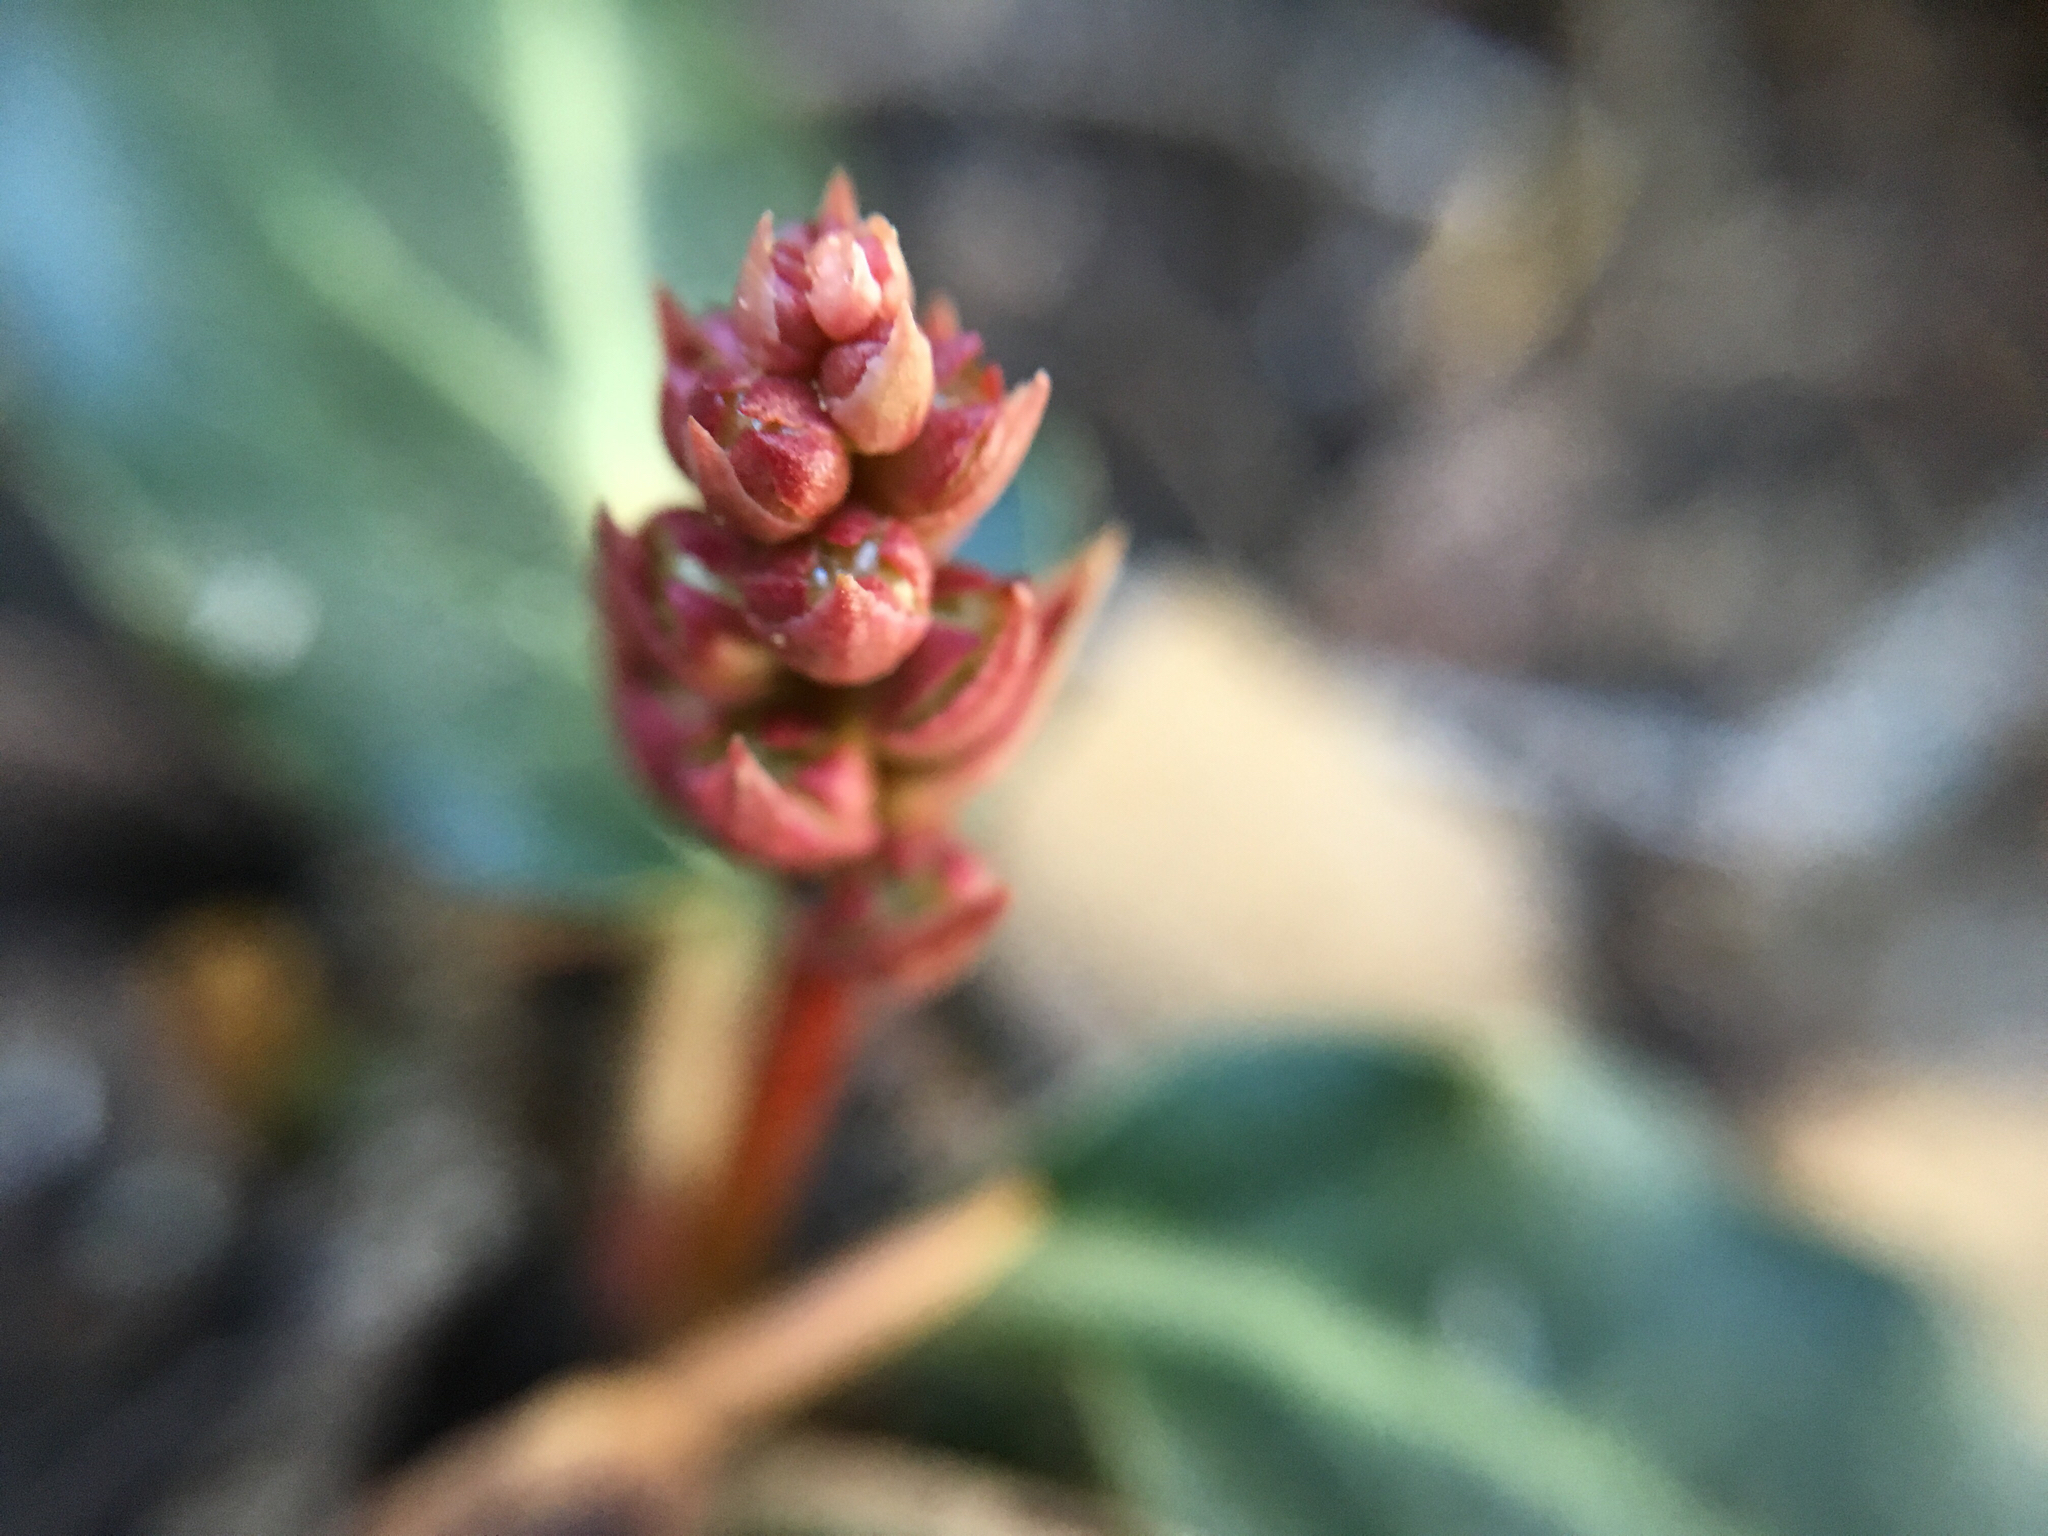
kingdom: Plantae
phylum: Tracheophyta
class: Magnoliopsida
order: Ericales
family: Ericaceae
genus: Pyrola
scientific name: Pyrola picta
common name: White-vein wintergreen
